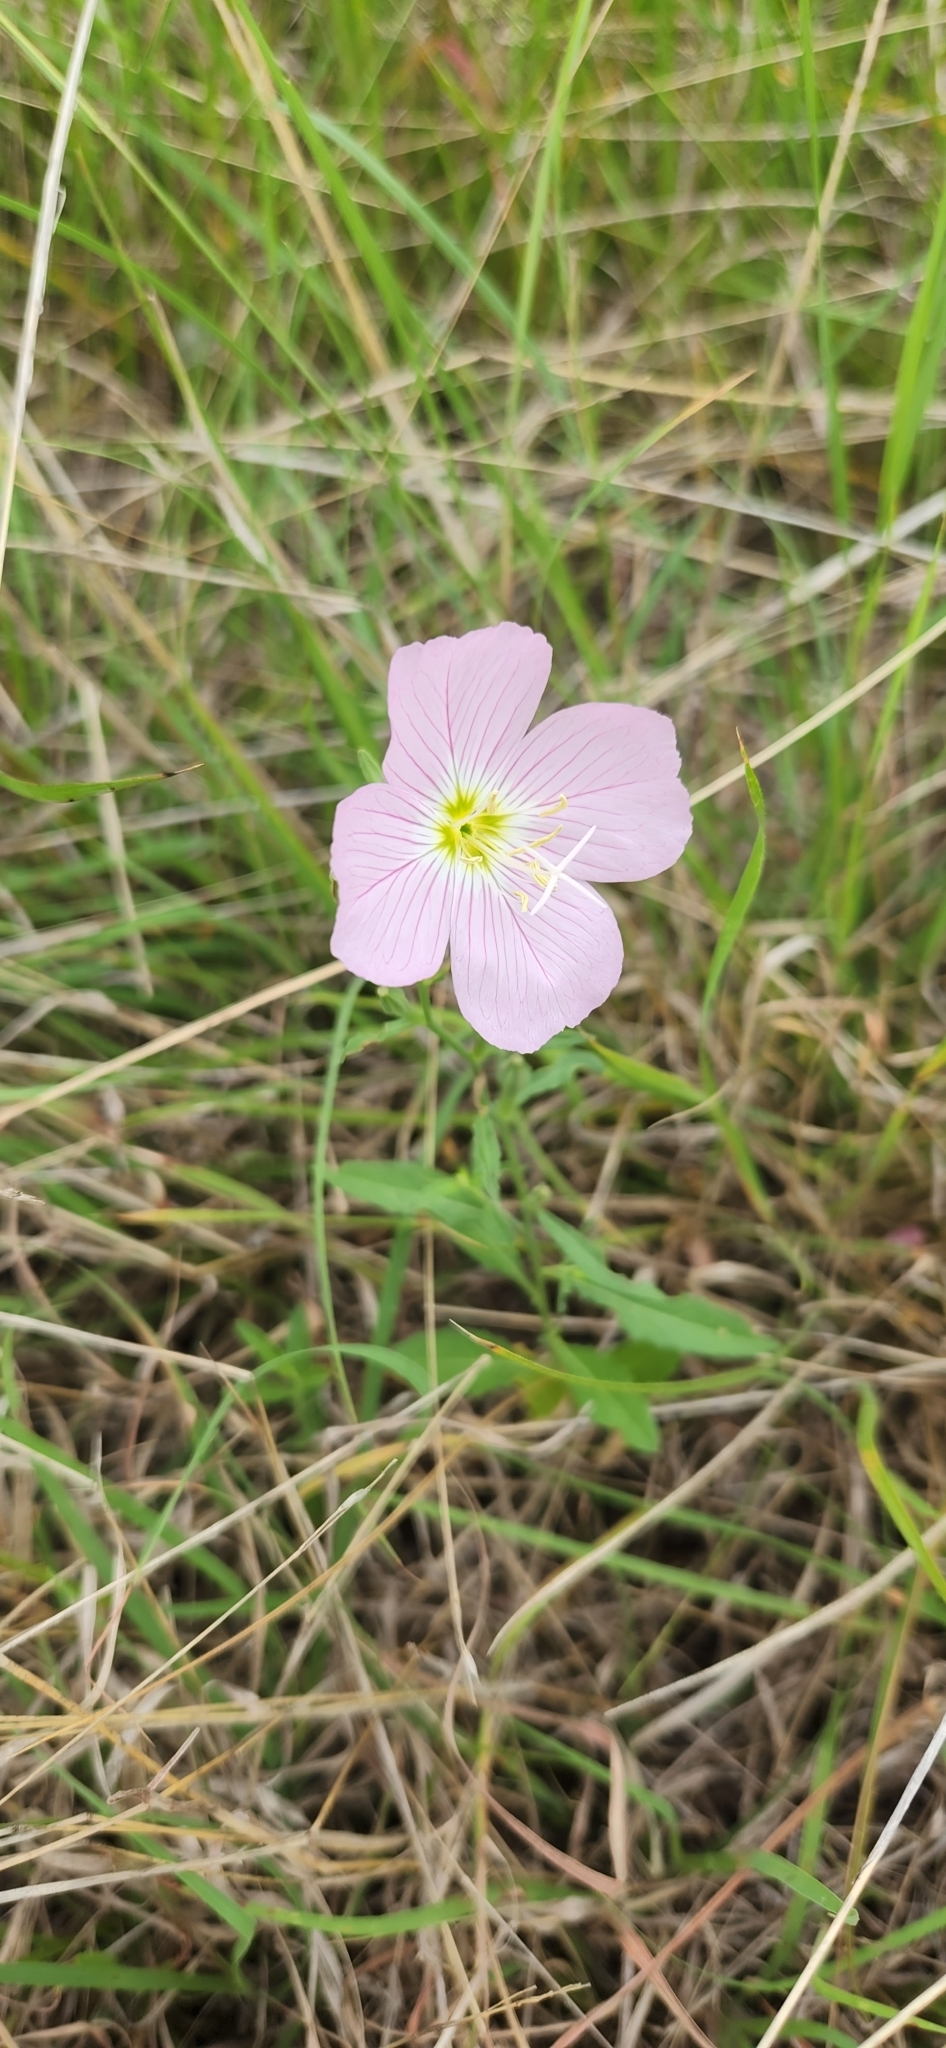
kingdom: Plantae
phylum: Tracheophyta
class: Magnoliopsida
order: Myrtales
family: Onagraceae
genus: Oenothera
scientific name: Oenothera speciosa
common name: White evening-primrose
